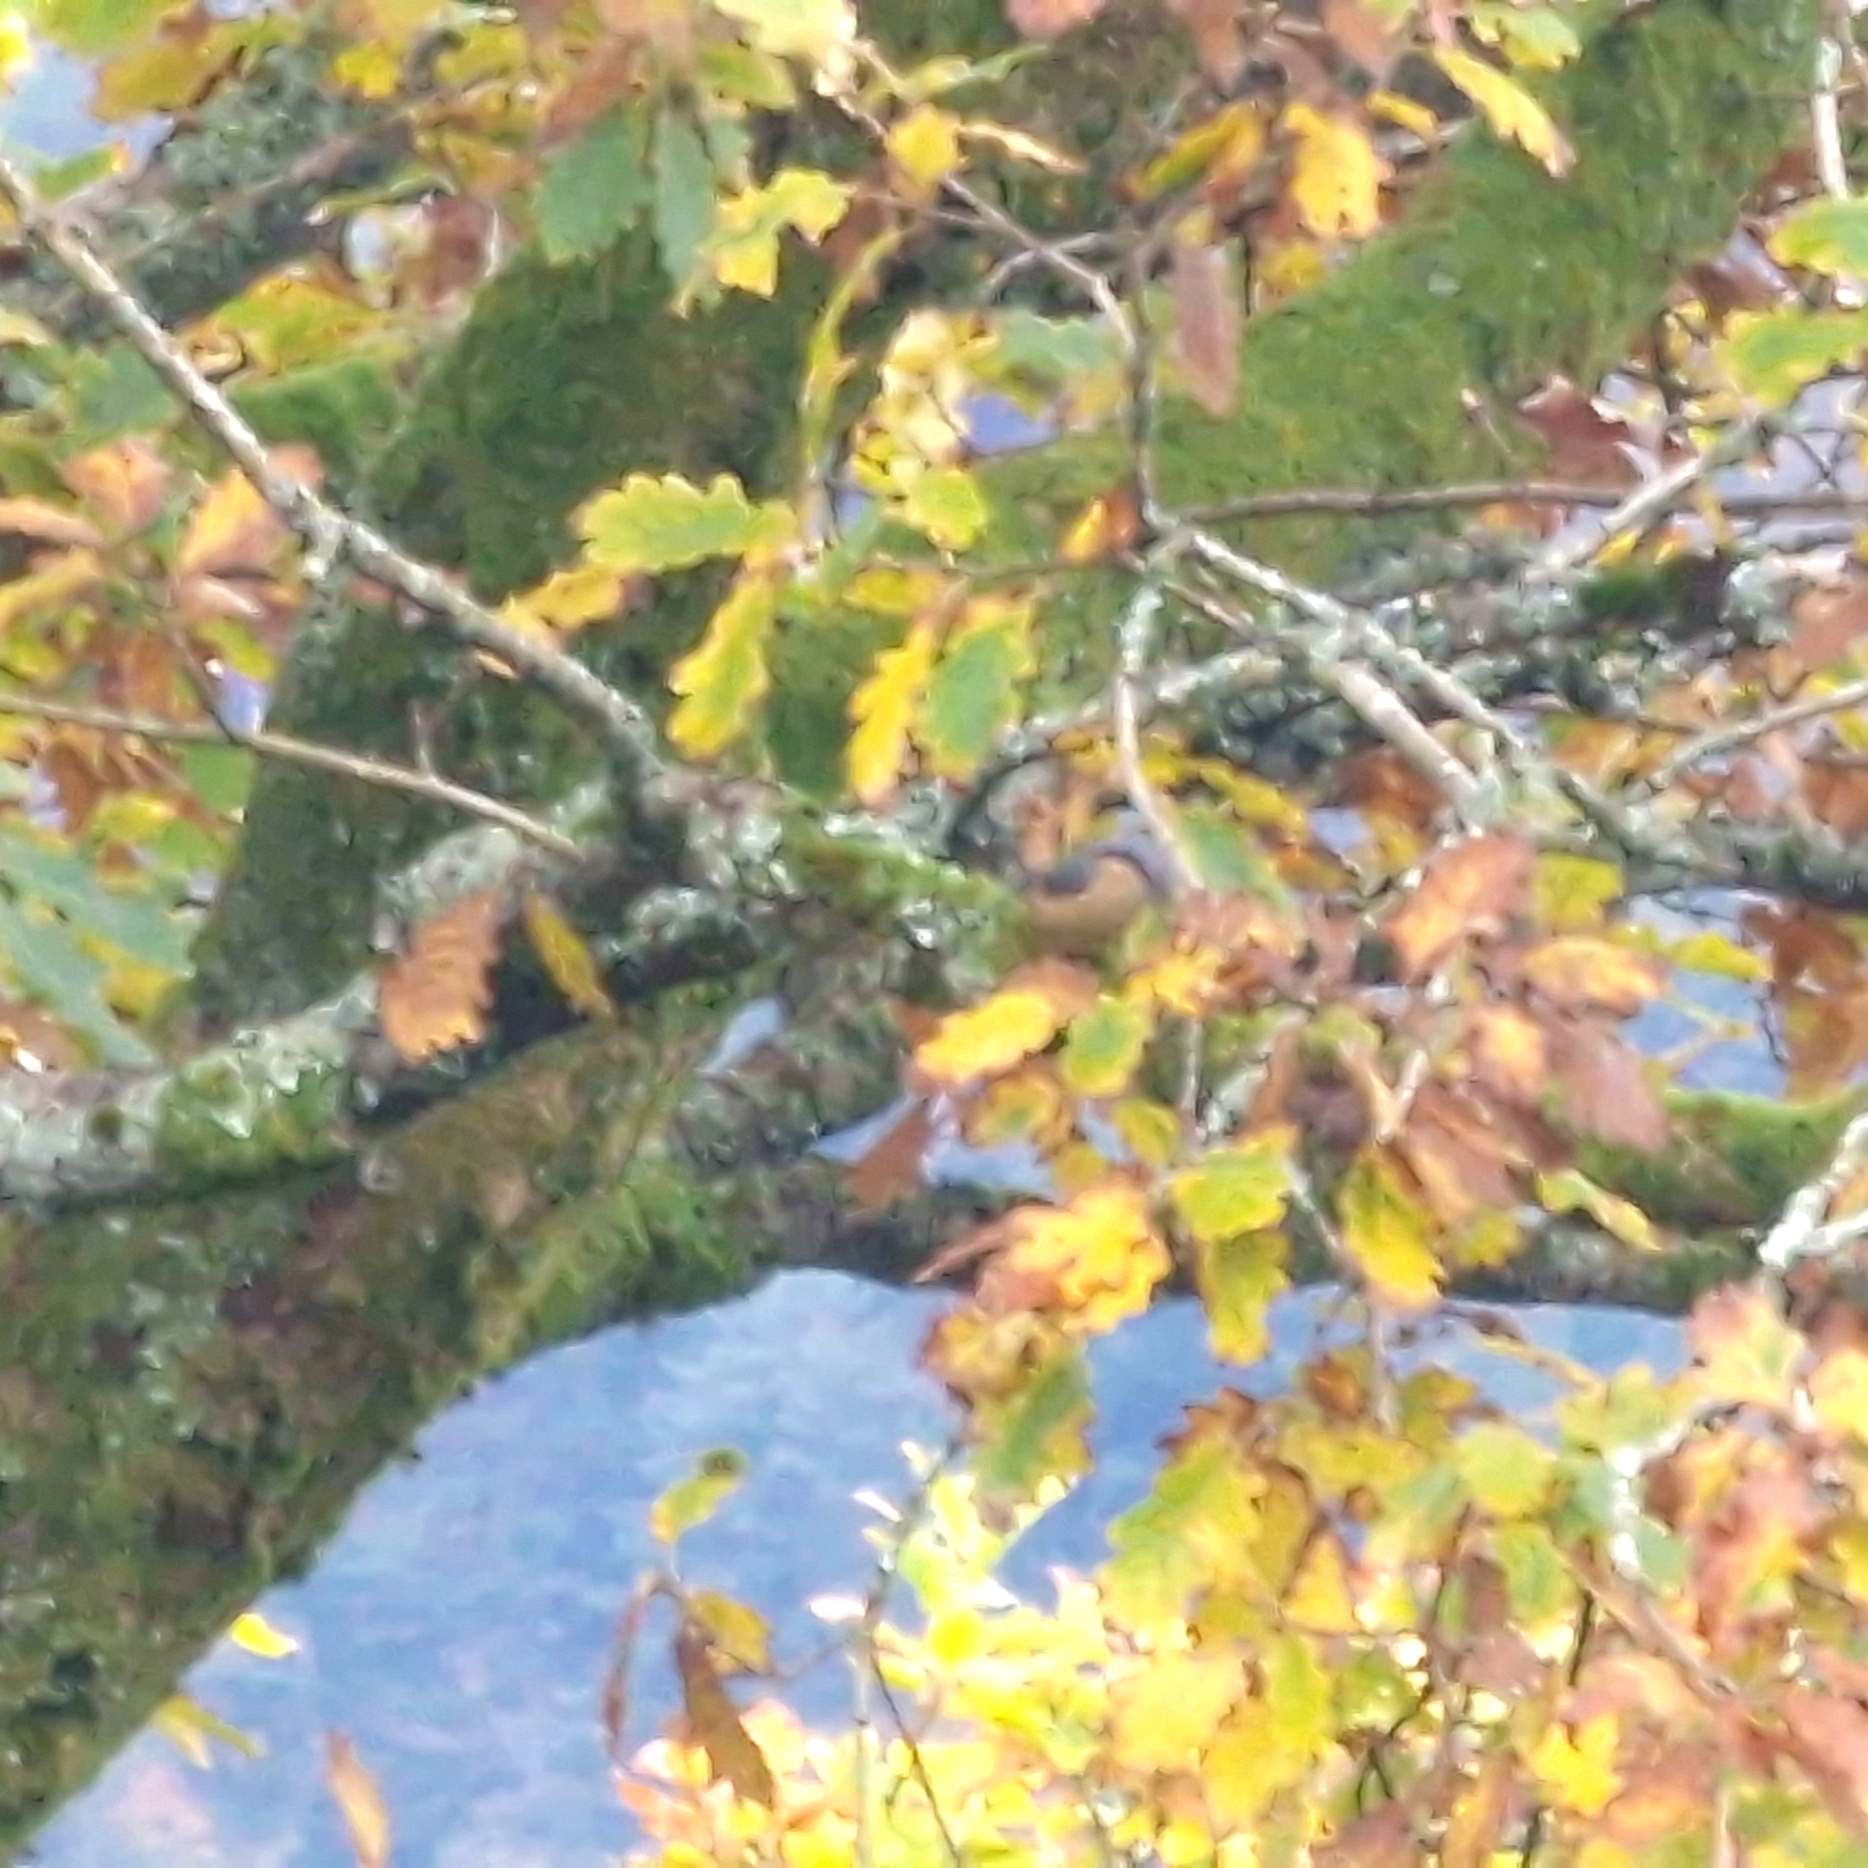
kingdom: Animalia
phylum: Chordata
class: Aves
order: Passeriformes
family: Sittidae
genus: Sitta
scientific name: Sitta europaea
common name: Eurasian nuthatch
